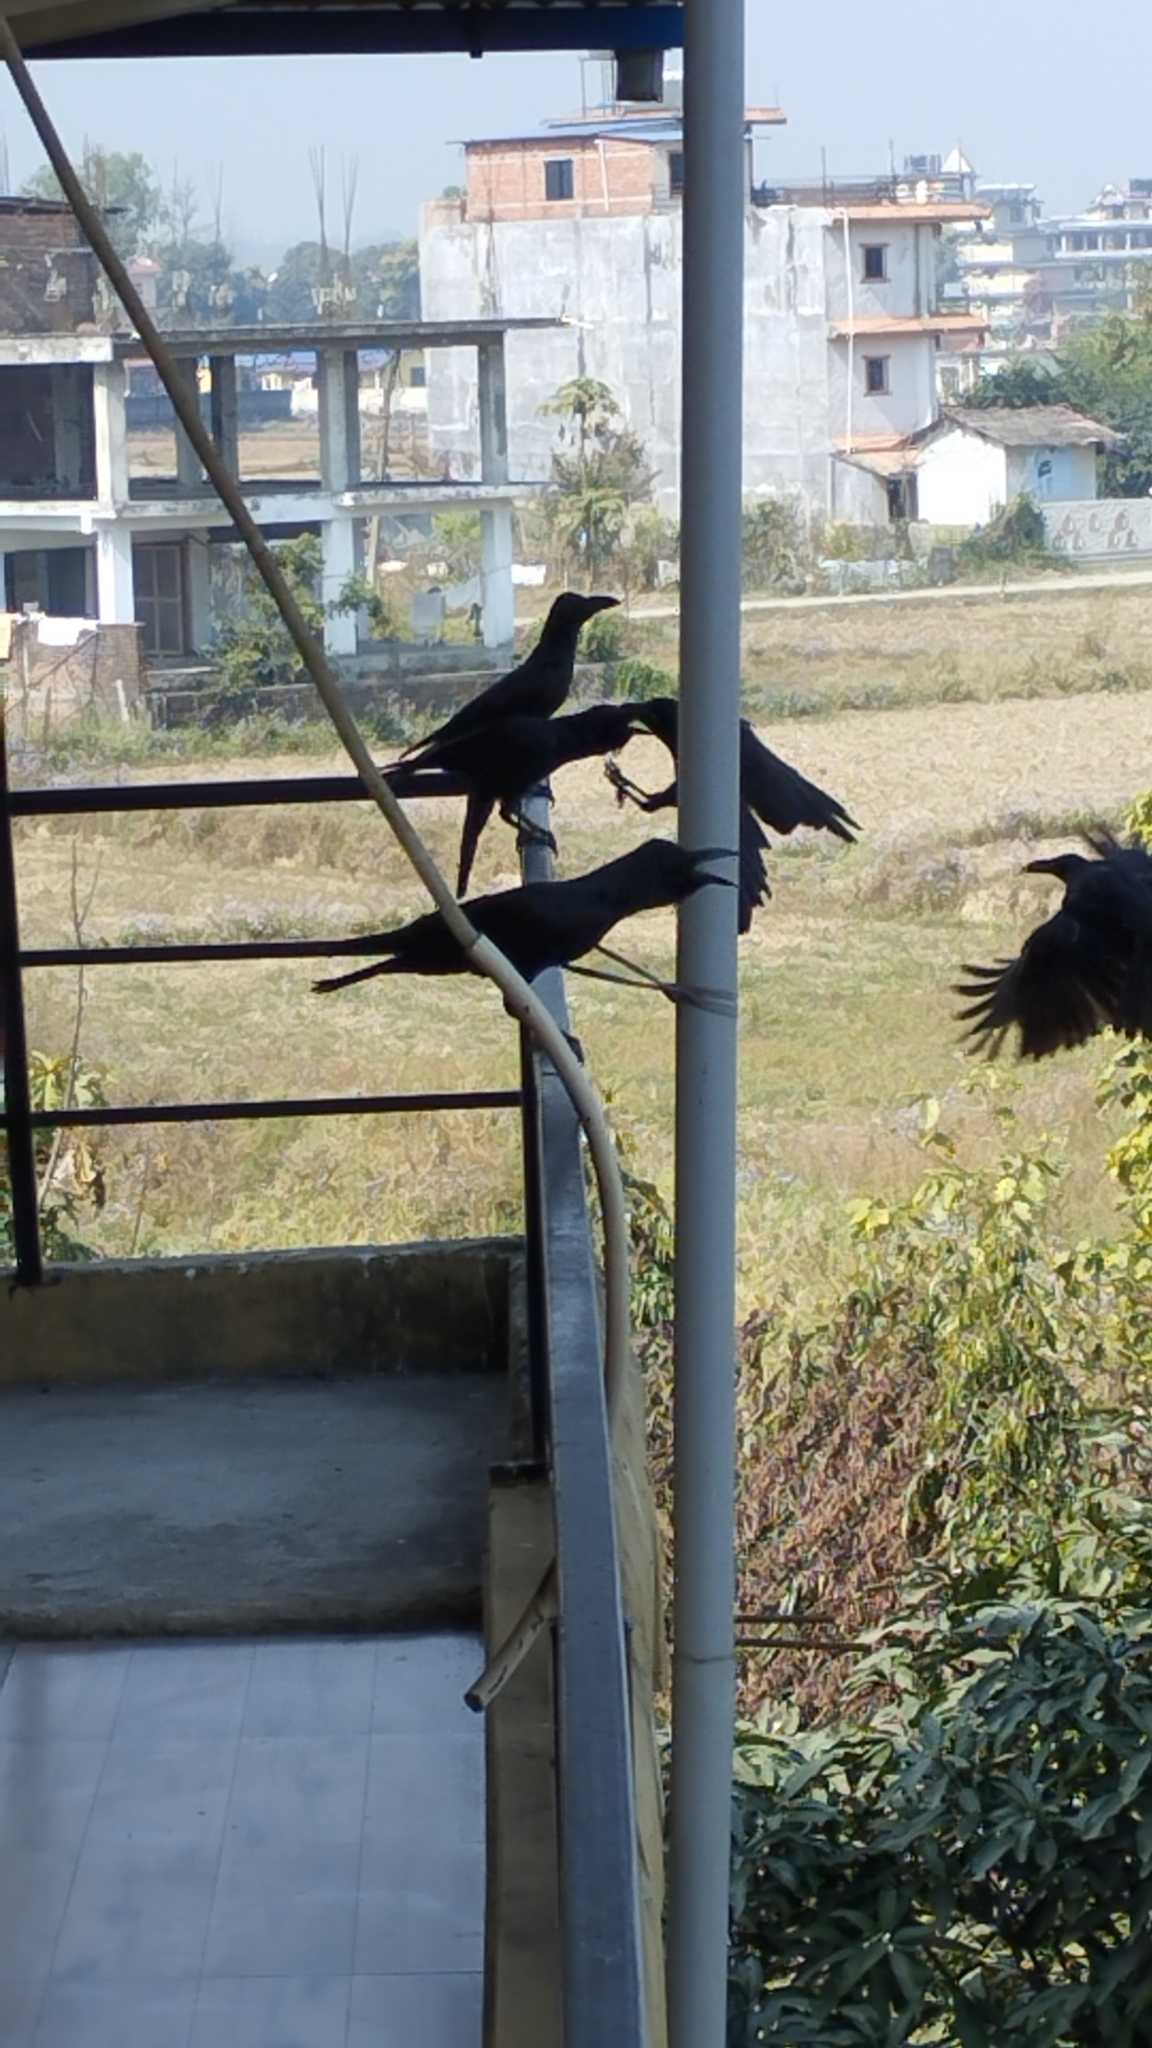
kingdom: Animalia
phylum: Chordata
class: Aves
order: Passeriformes
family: Corvidae
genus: Corvus
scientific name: Corvus macrorhynchos
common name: Large-billed crow
